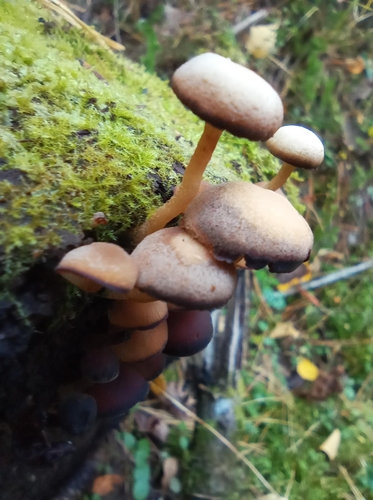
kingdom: Fungi
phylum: Basidiomycota
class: Agaricomycetes
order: Agaricales
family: Psathyrellaceae
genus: Psathyrella
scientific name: Psathyrella
